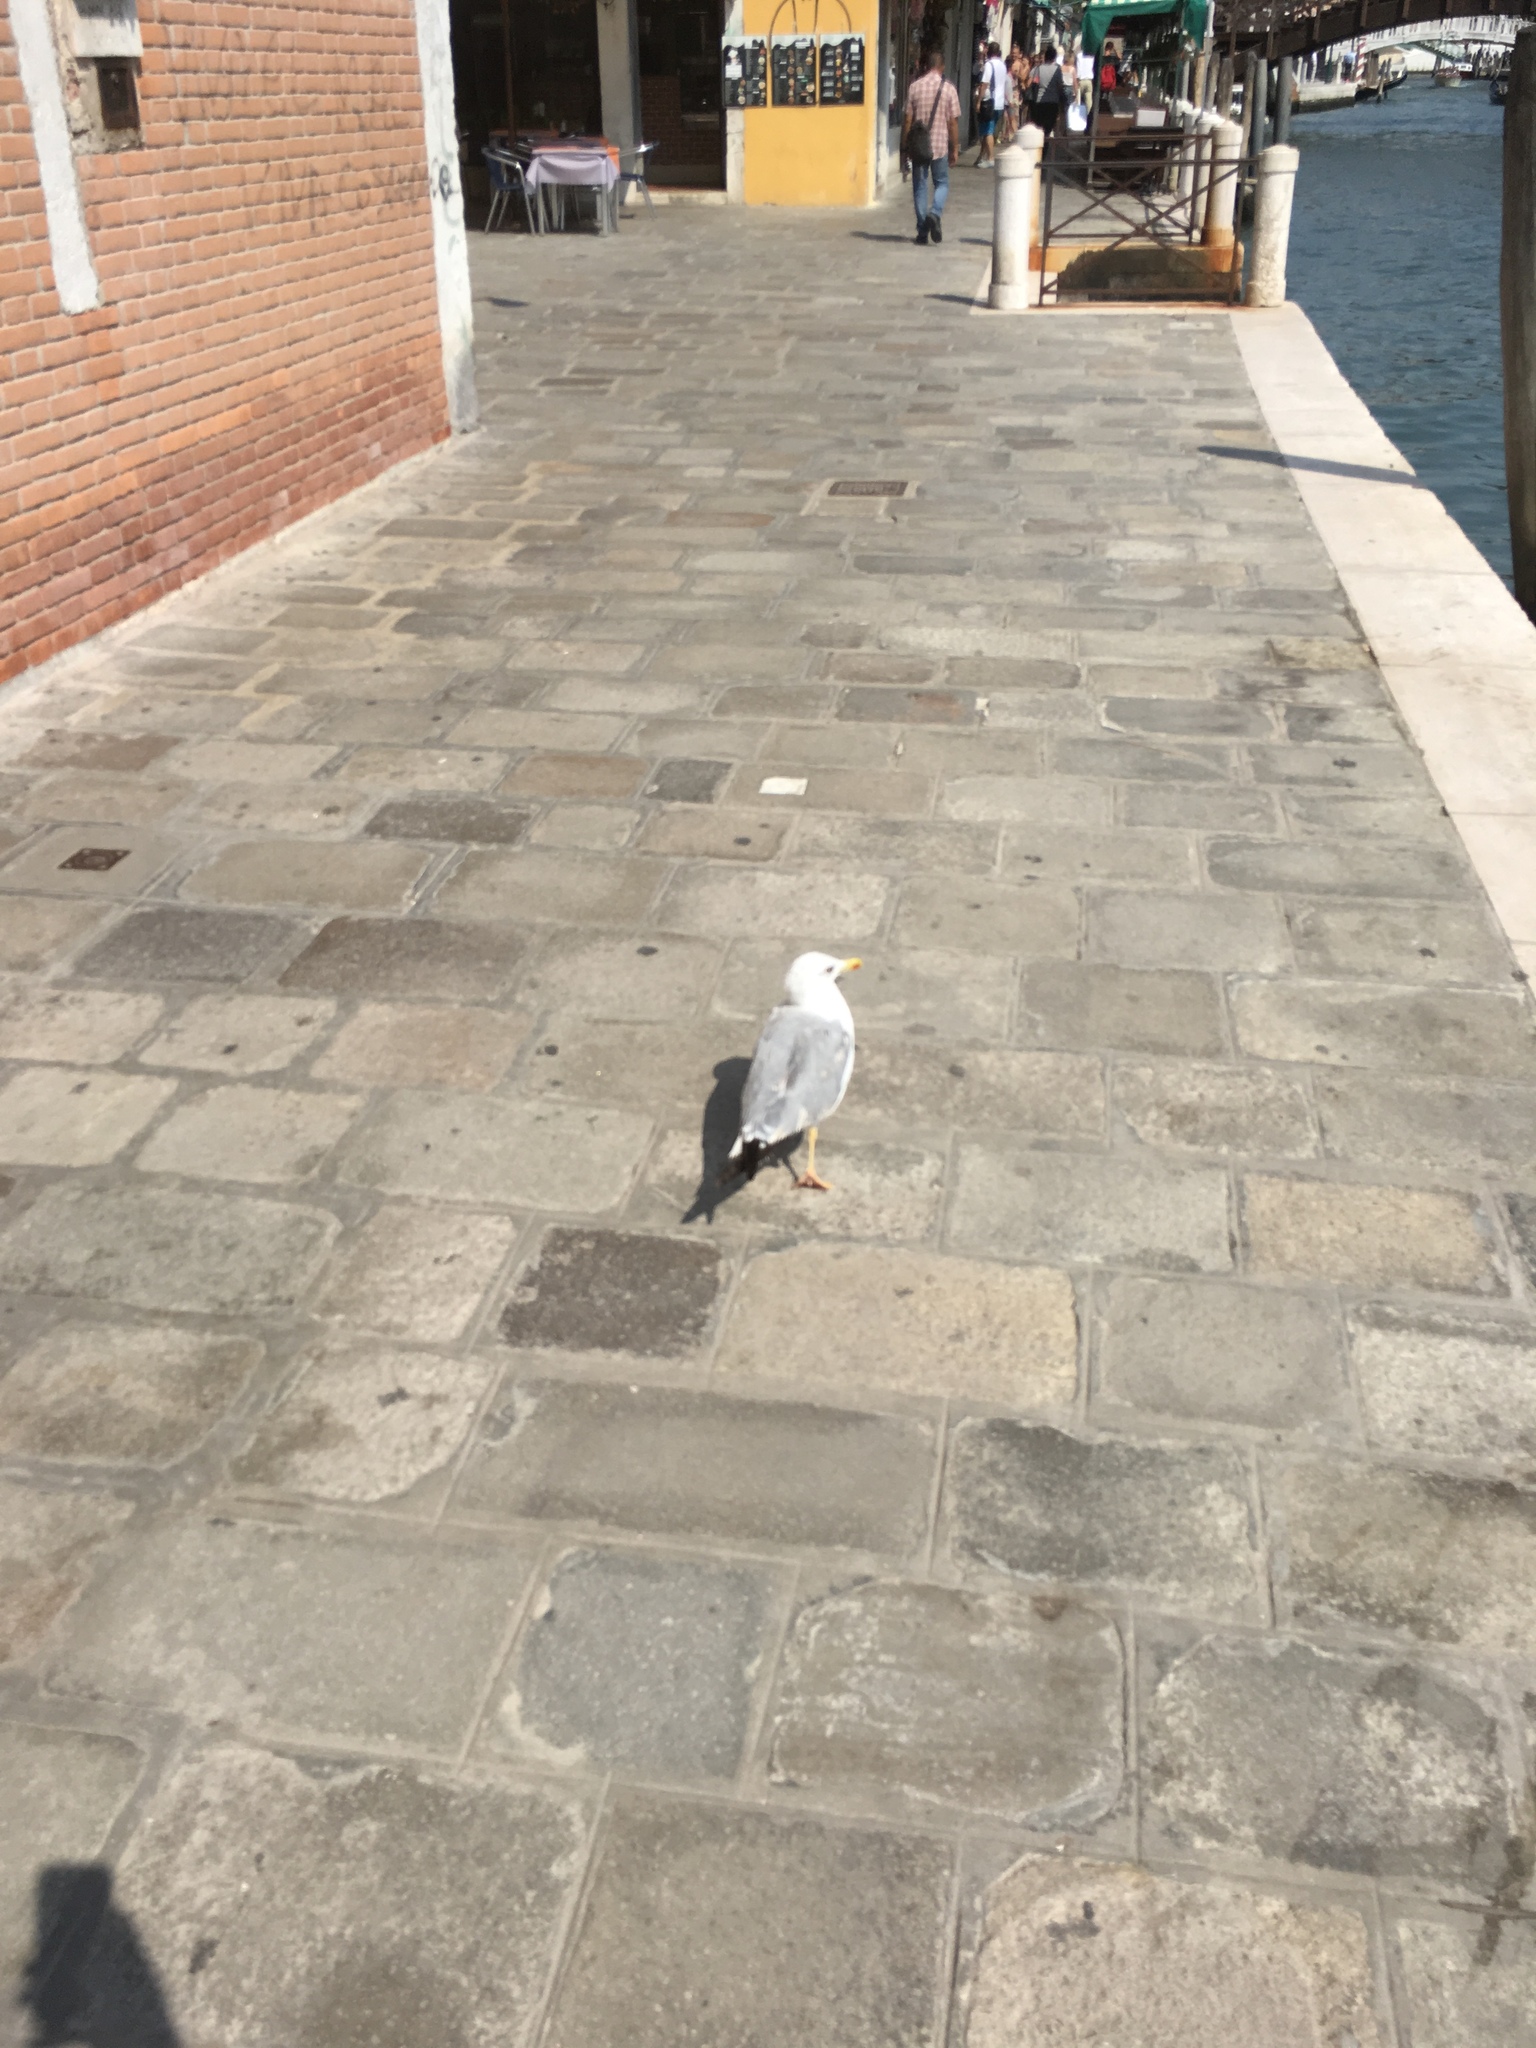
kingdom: Animalia
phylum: Chordata
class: Aves
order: Charadriiformes
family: Laridae
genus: Larus
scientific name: Larus michahellis
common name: Yellow-legged gull
